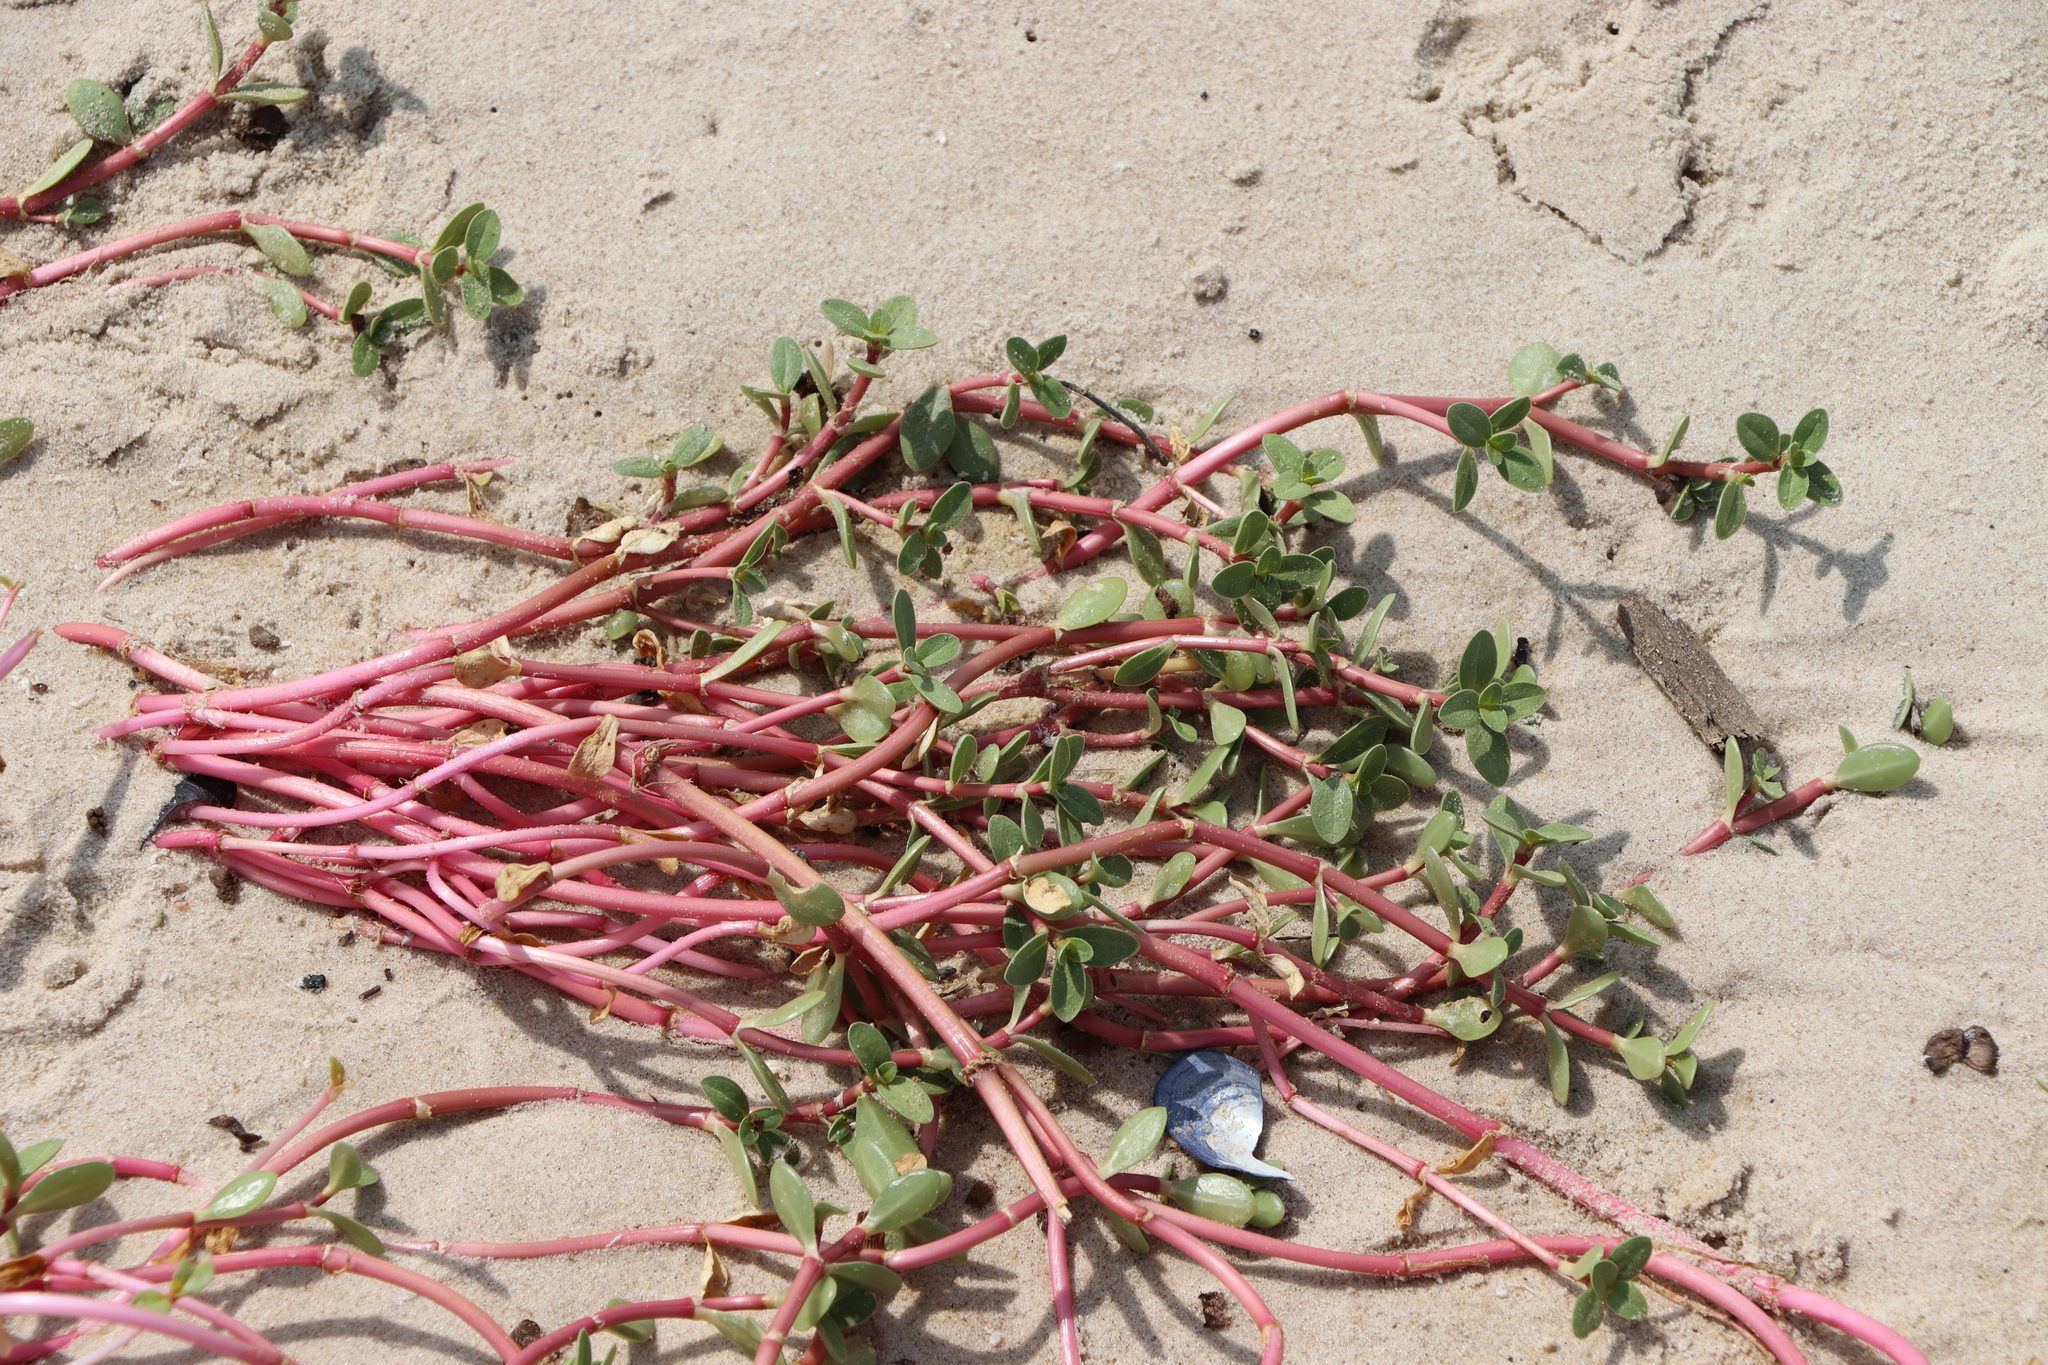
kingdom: Plantae
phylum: Tracheophyta
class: Magnoliopsida
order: Caryophyllales
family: Amaranthaceae
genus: Gomphrena
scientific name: Gomphrena portulacoides
